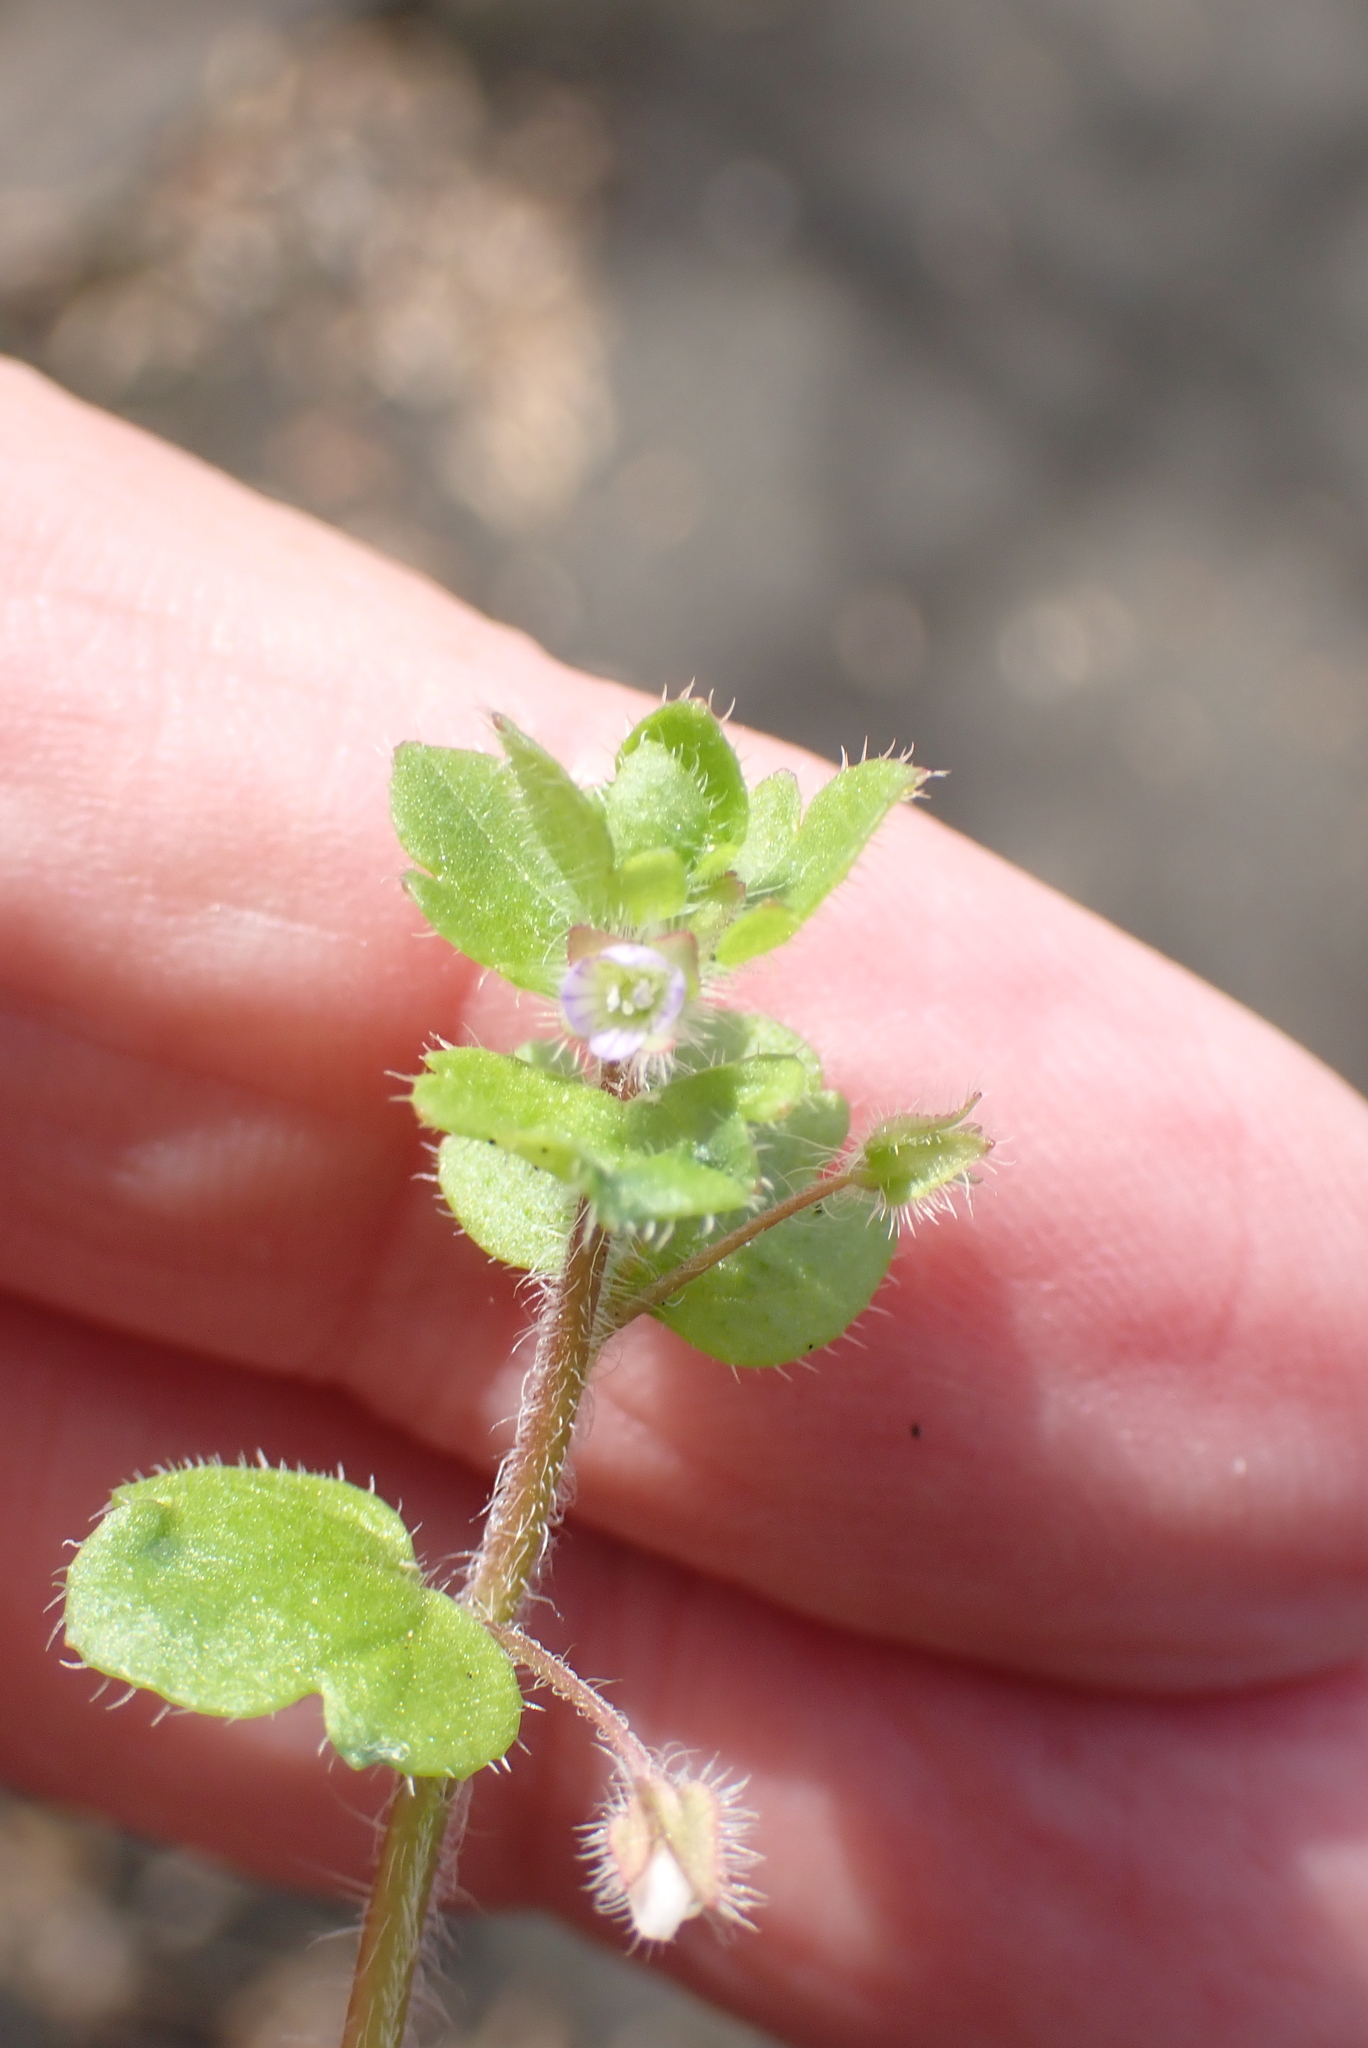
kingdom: Plantae
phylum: Tracheophyta
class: Magnoliopsida
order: Lamiales
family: Plantaginaceae
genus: Veronica
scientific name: Veronica sublobata
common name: False ivy-leaved speedwell
